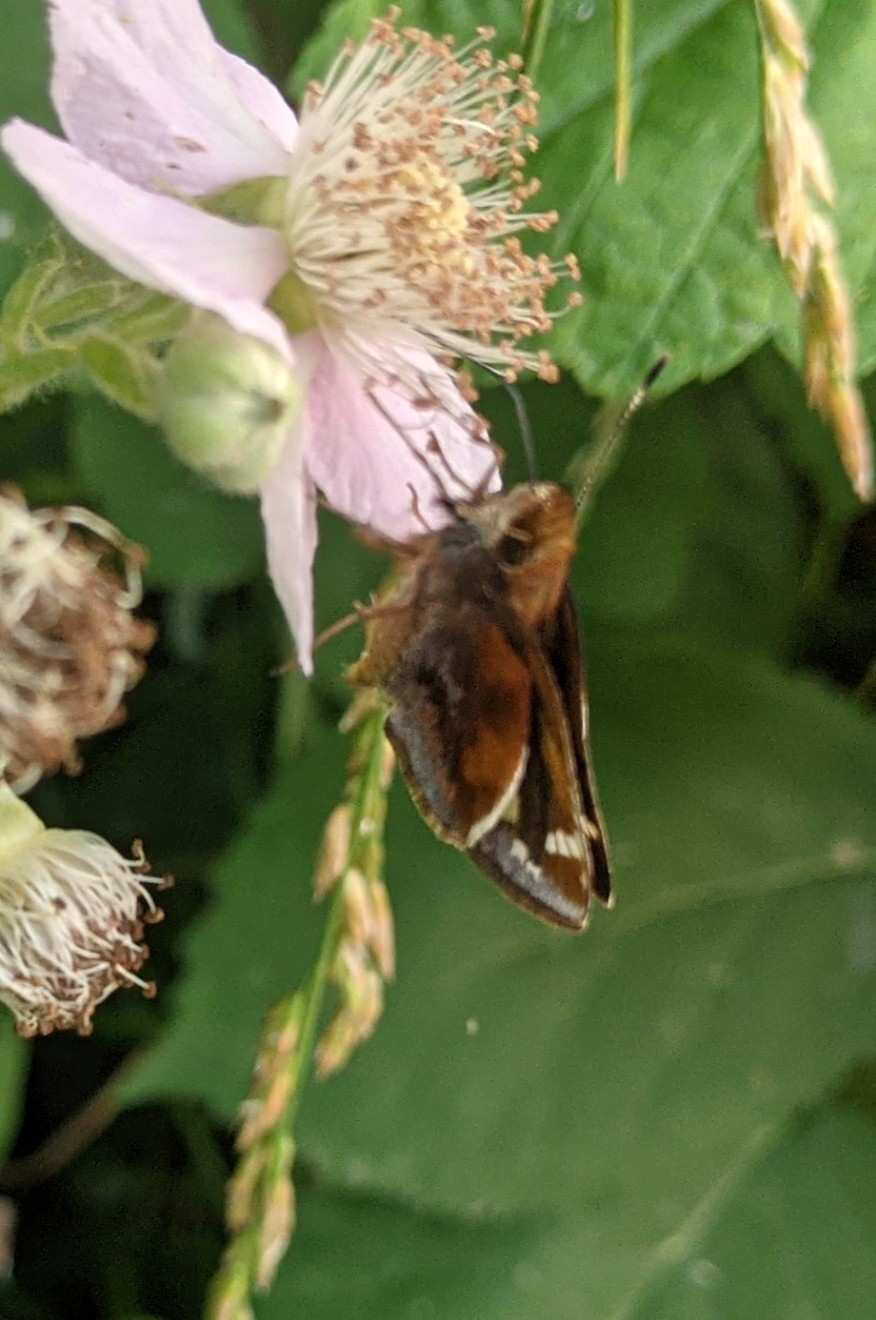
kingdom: Animalia
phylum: Arthropoda
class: Insecta
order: Lepidoptera
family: Hesperiidae
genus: Lon
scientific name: Lon zabulon
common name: Zabulon skipper
